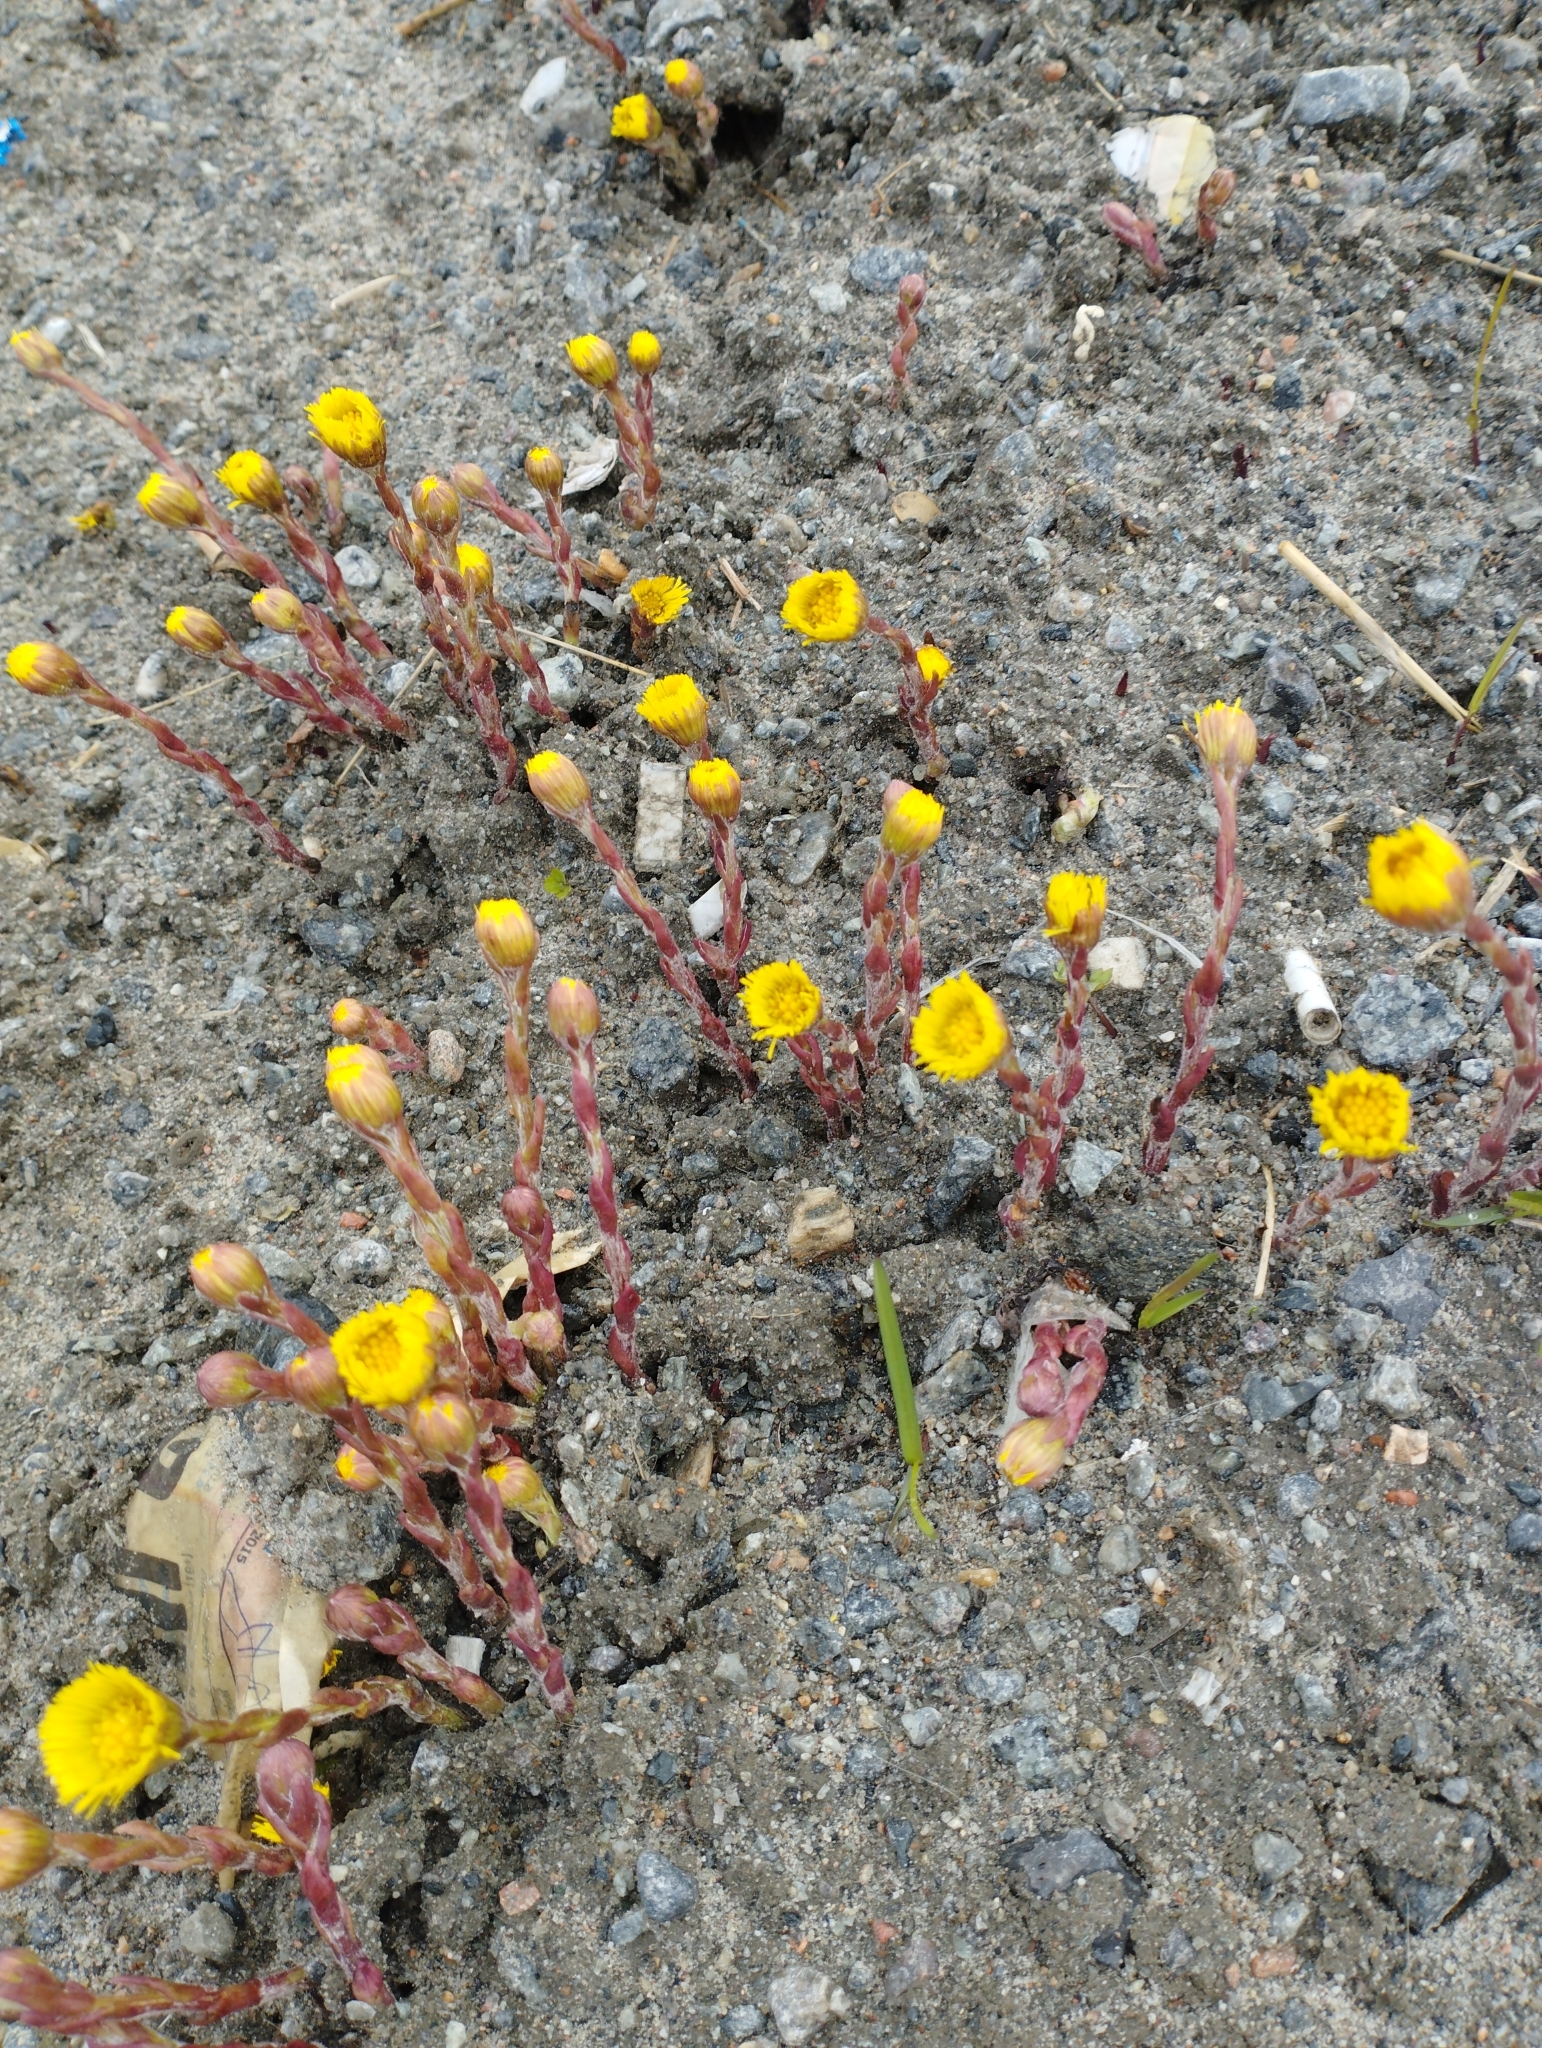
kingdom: Plantae
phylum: Tracheophyta
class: Magnoliopsida
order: Asterales
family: Asteraceae
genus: Tussilago
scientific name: Tussilago farfara
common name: Coltsfoot
